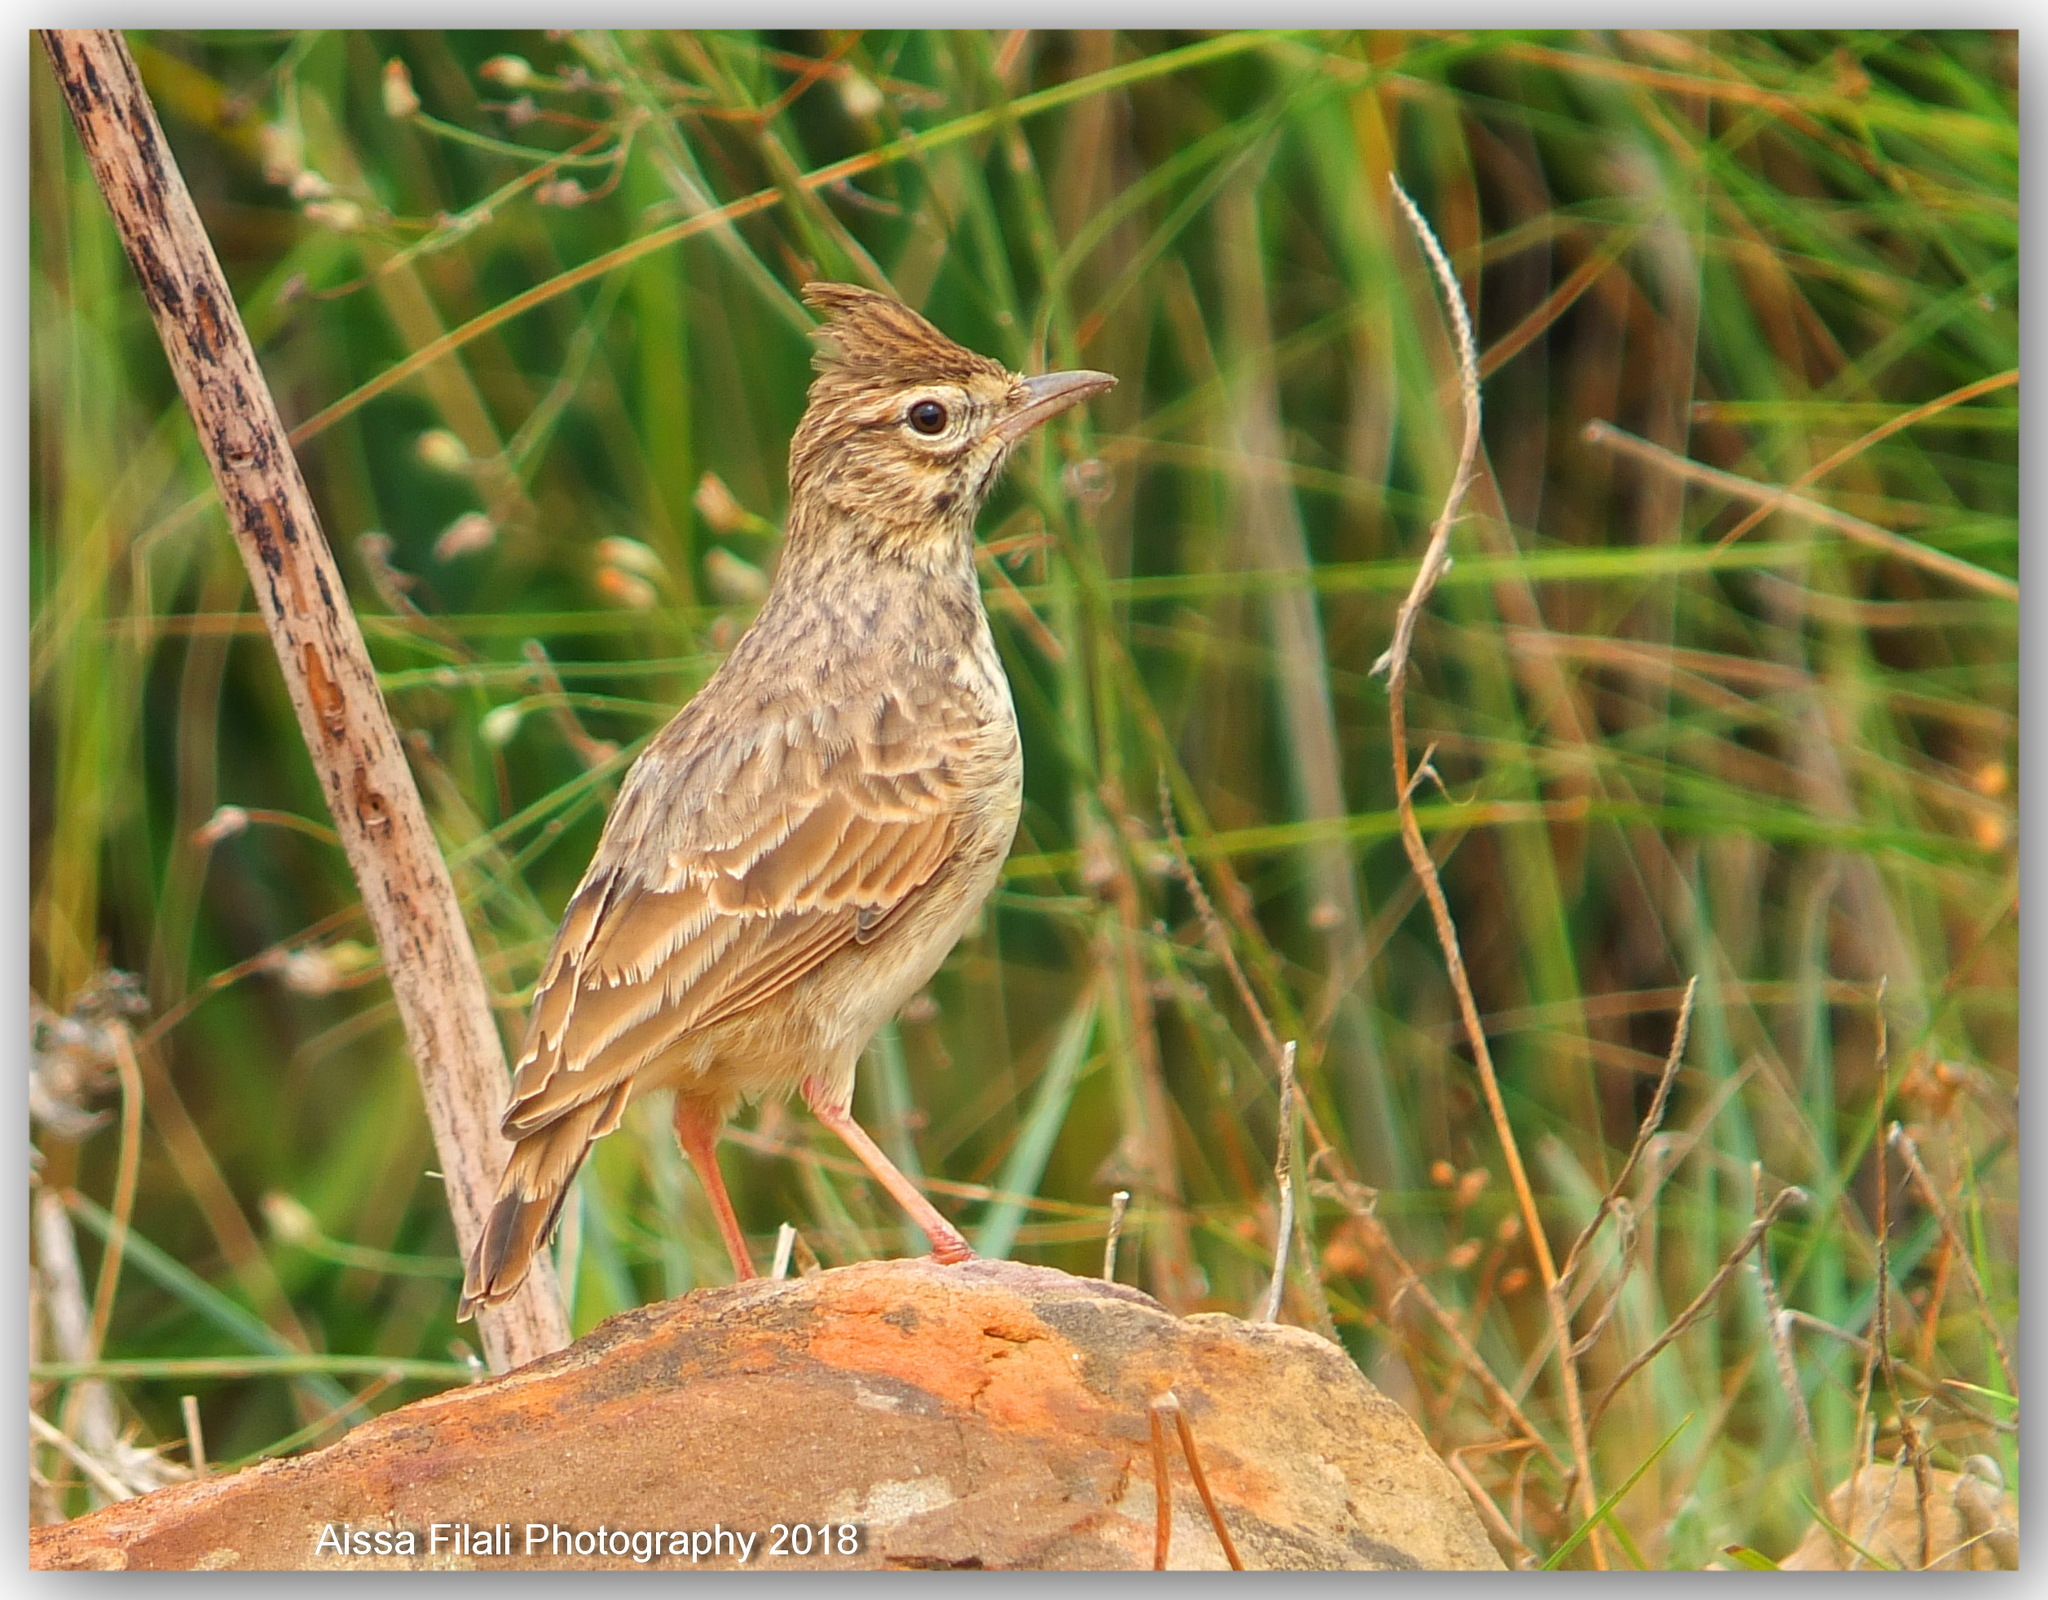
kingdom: Animalia
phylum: Chordata
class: Aves
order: Passeriformes
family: Alaudidae
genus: Galerida
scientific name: Galerida cristata
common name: Crested lark
